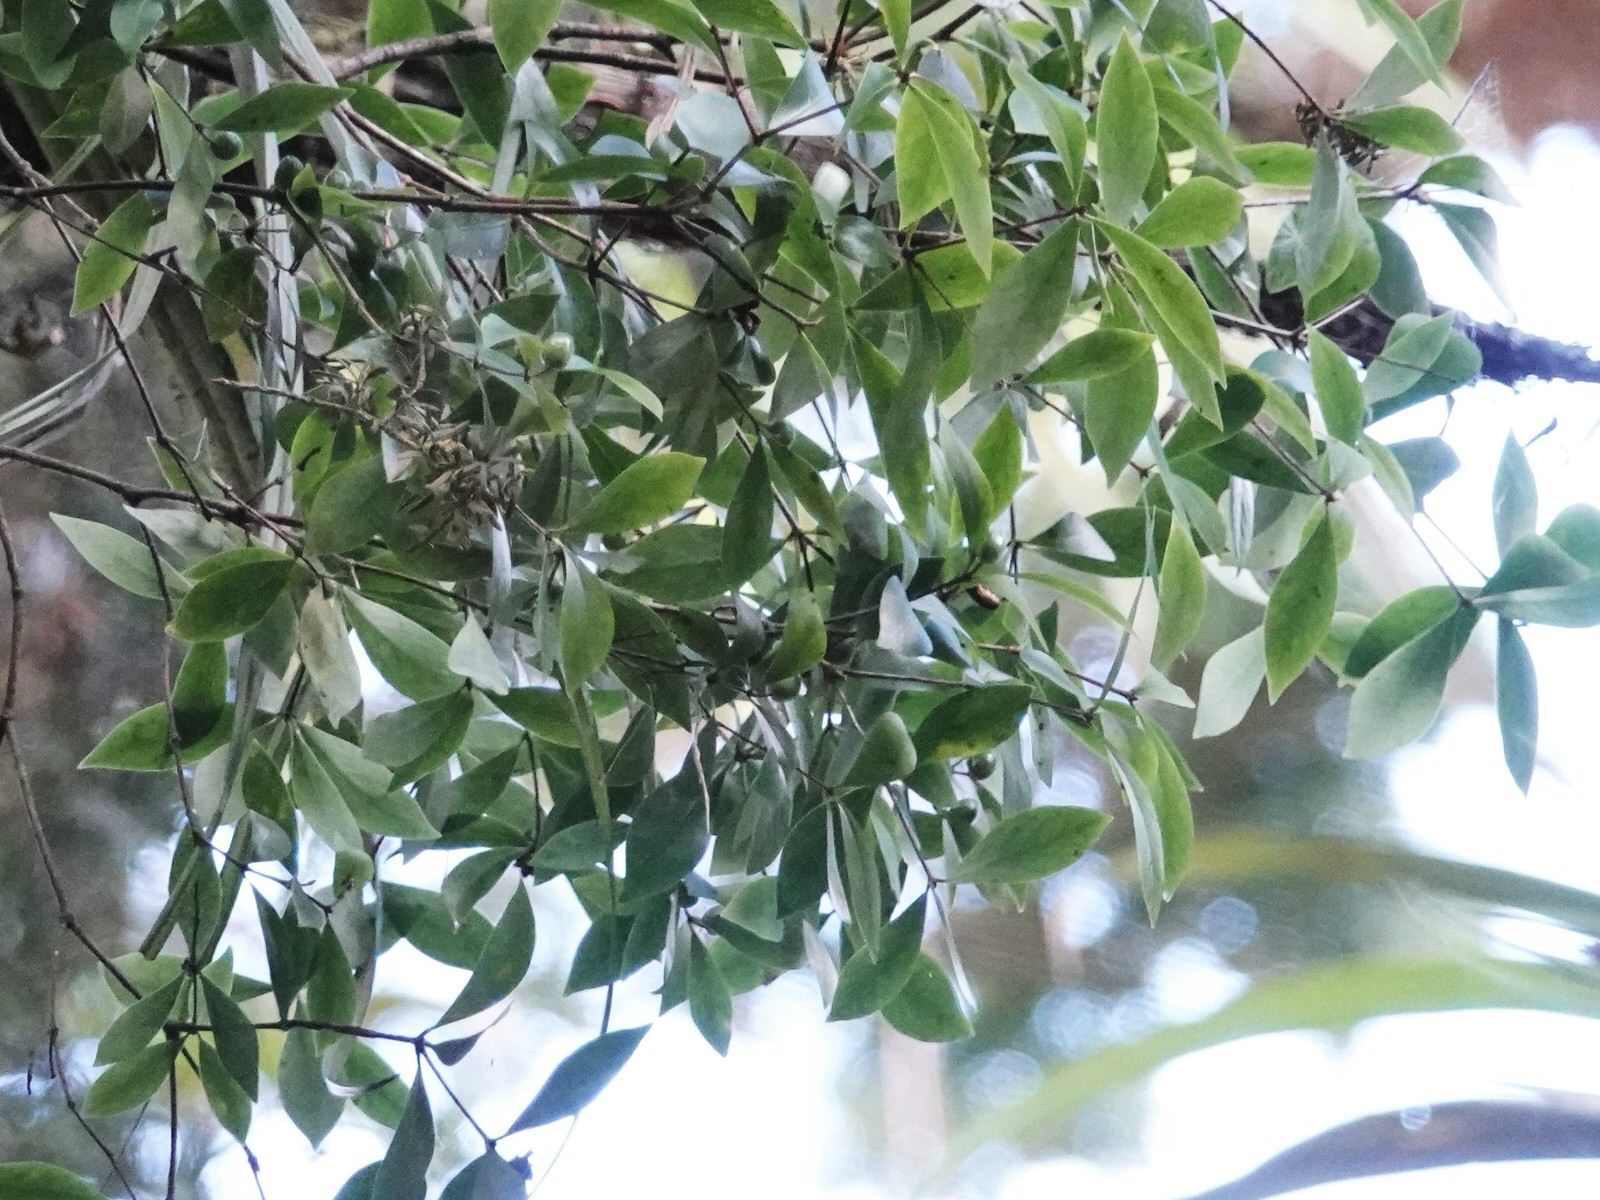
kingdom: Plantae
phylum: Tracheophyta
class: Magnoliopsida
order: Apiales
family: Pittosporaceae
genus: Pittosporum
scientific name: Pittosporum cornifolium
